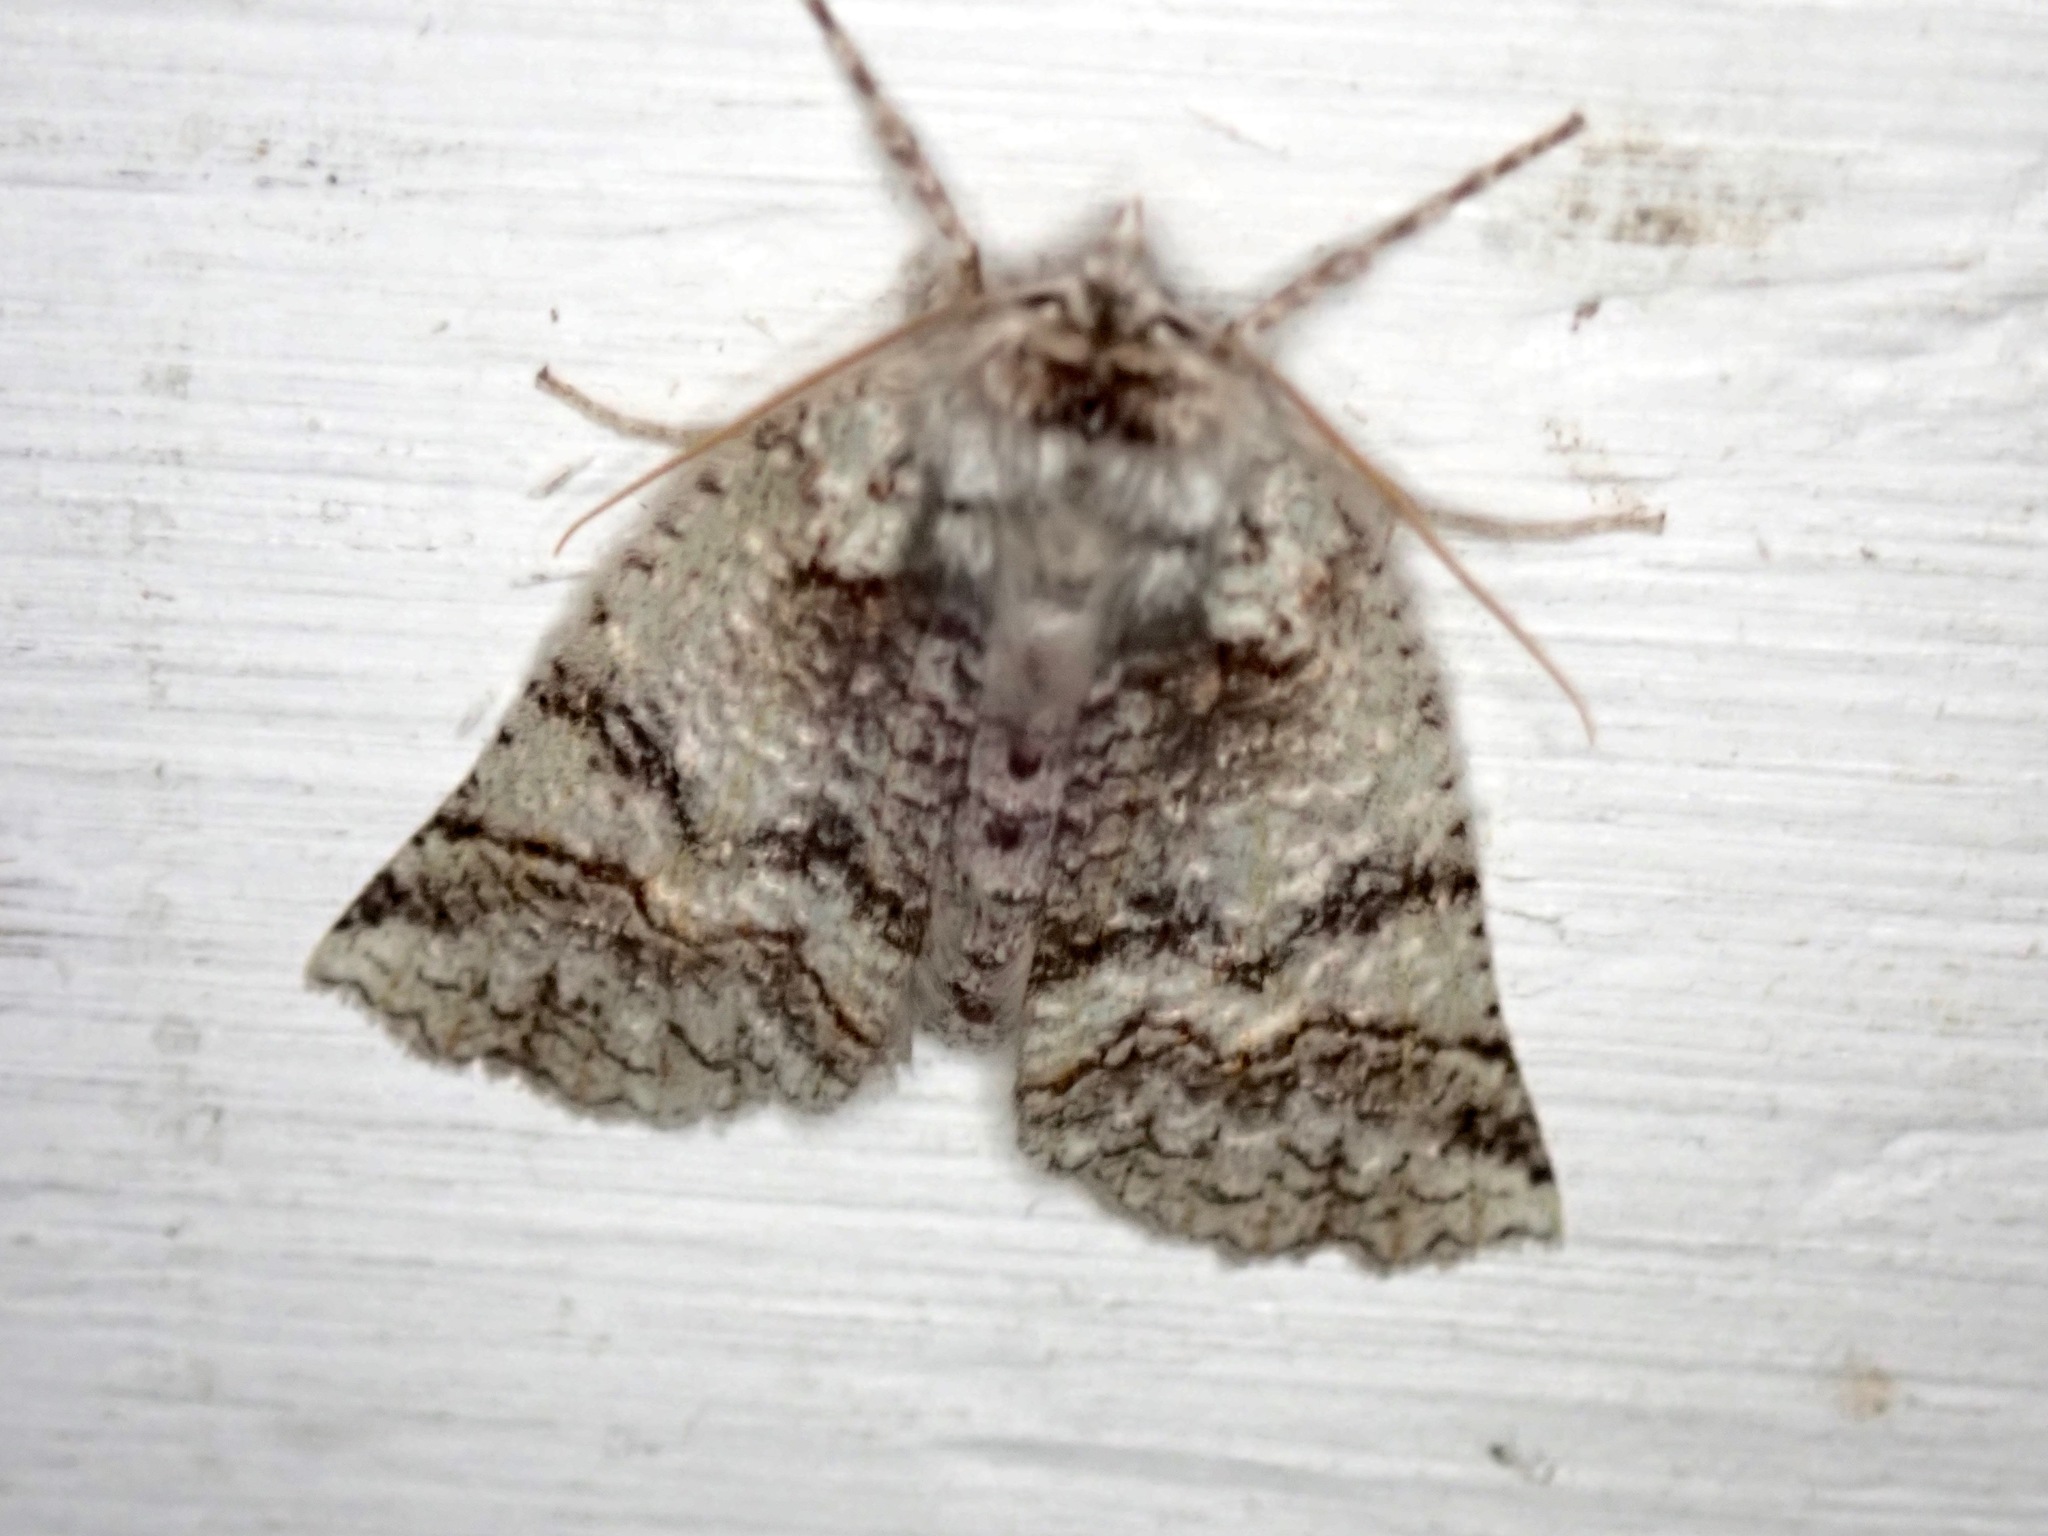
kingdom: Animalia
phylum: Arthropoda
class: Insecta
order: Lepidoptera
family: Geometridae
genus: Declana
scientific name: Declana floccosa
